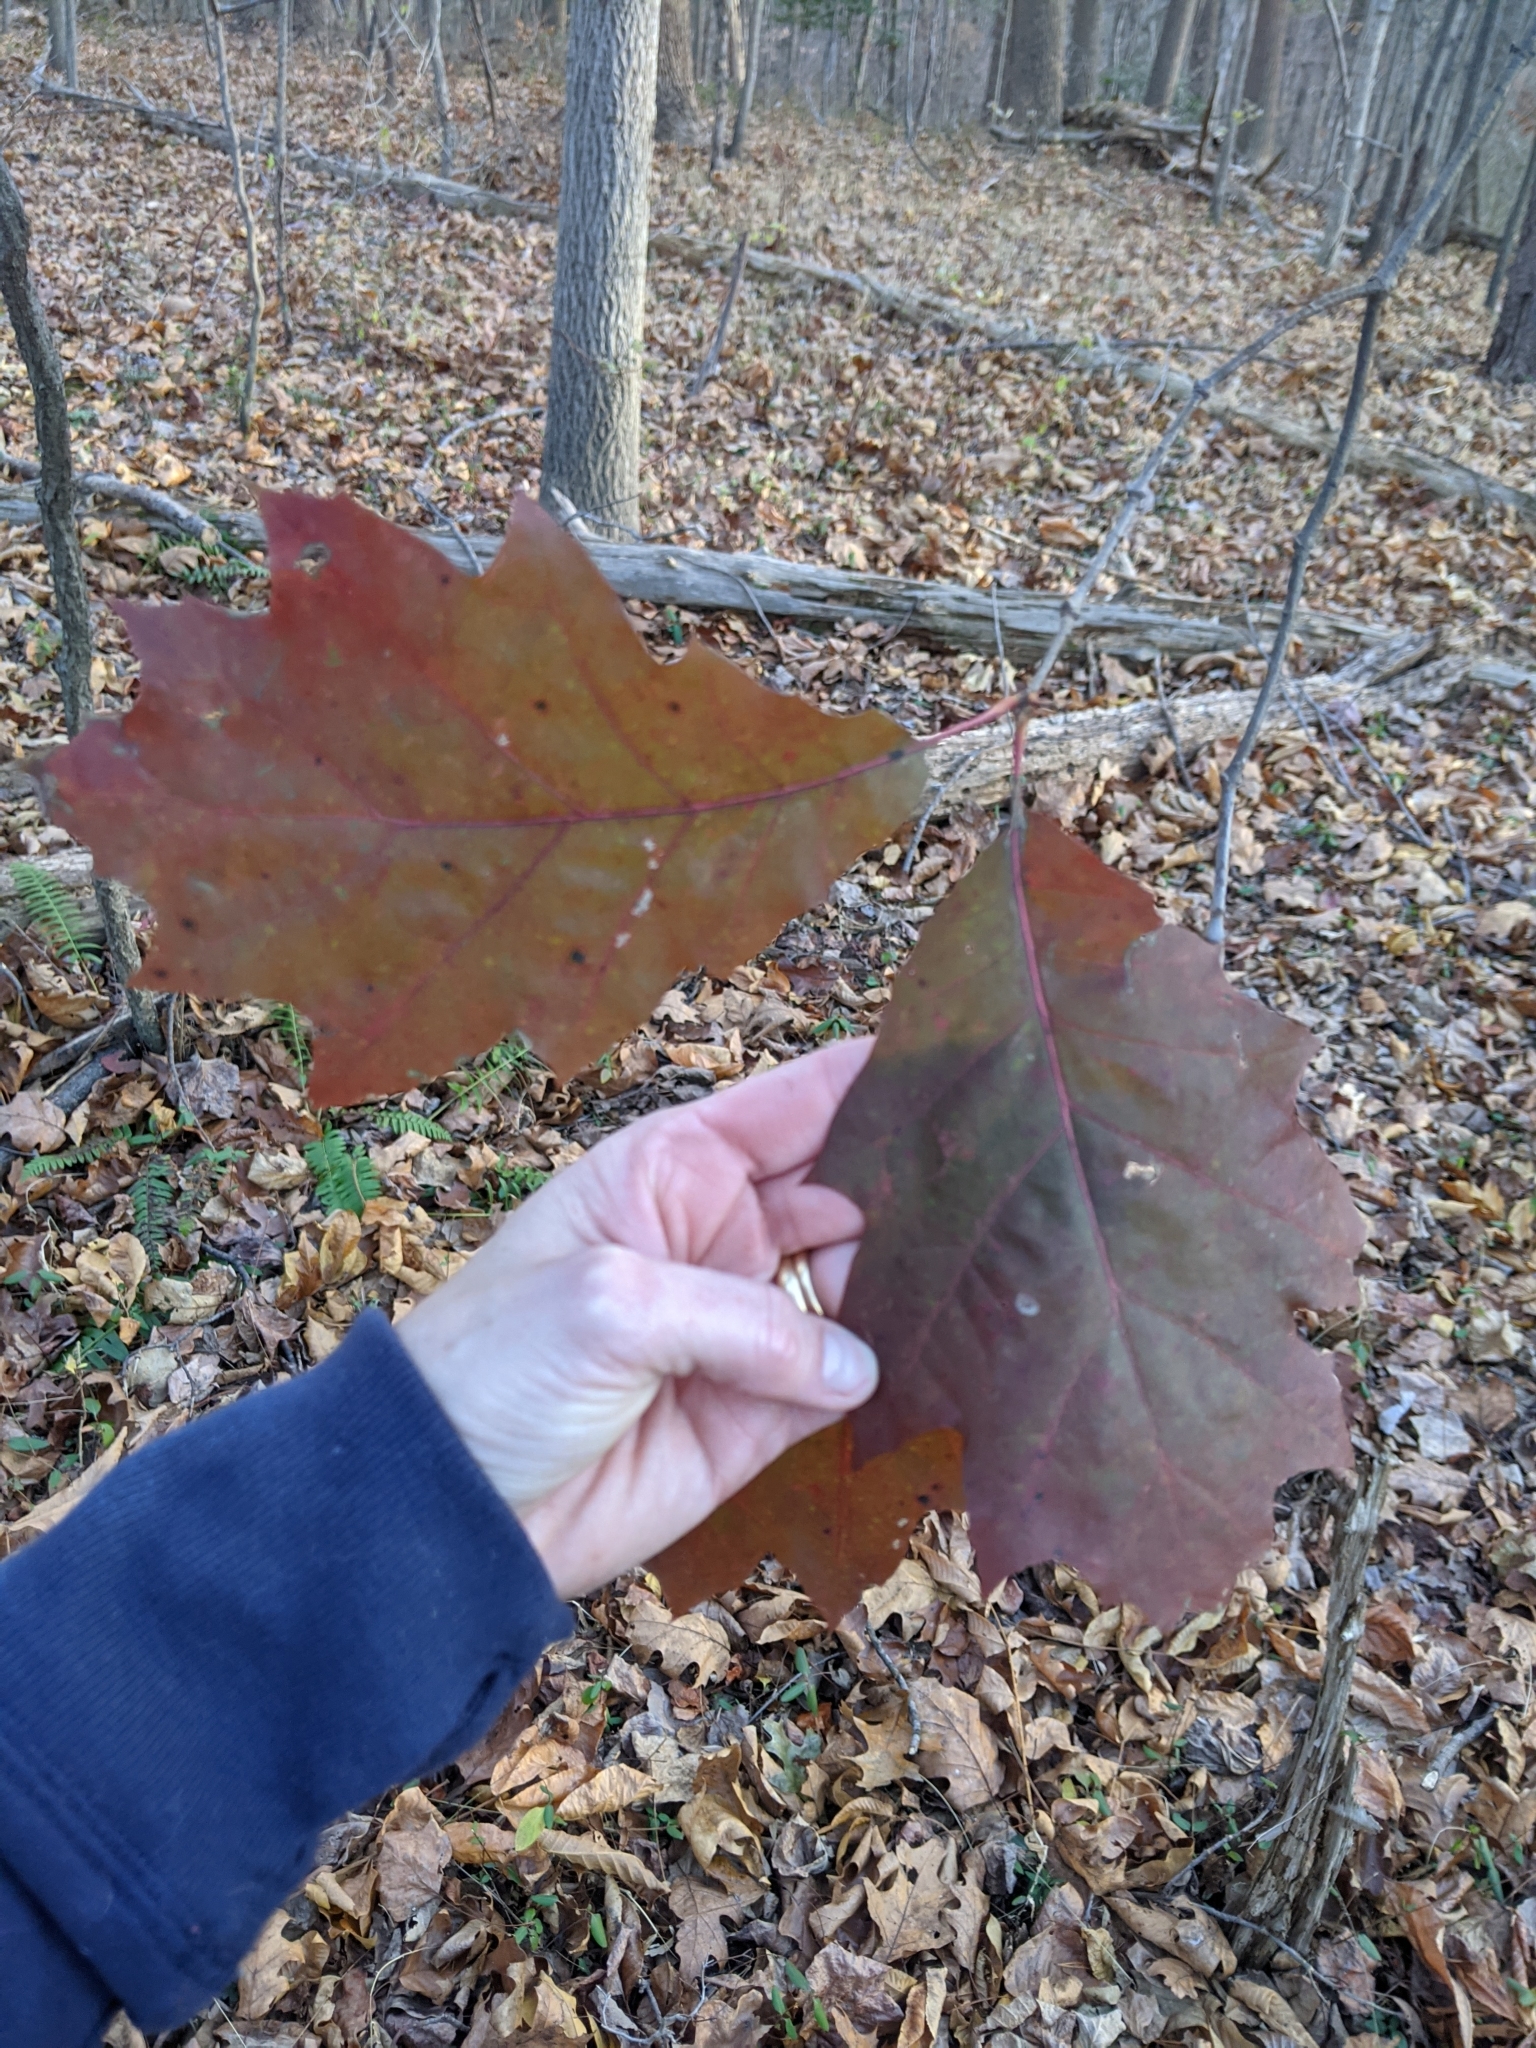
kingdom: Plantae
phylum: Tracheophyta
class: Magnoliopsida
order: Fagales
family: Fagaceae
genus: Quercus
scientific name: Quercus rubra
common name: Red oak
